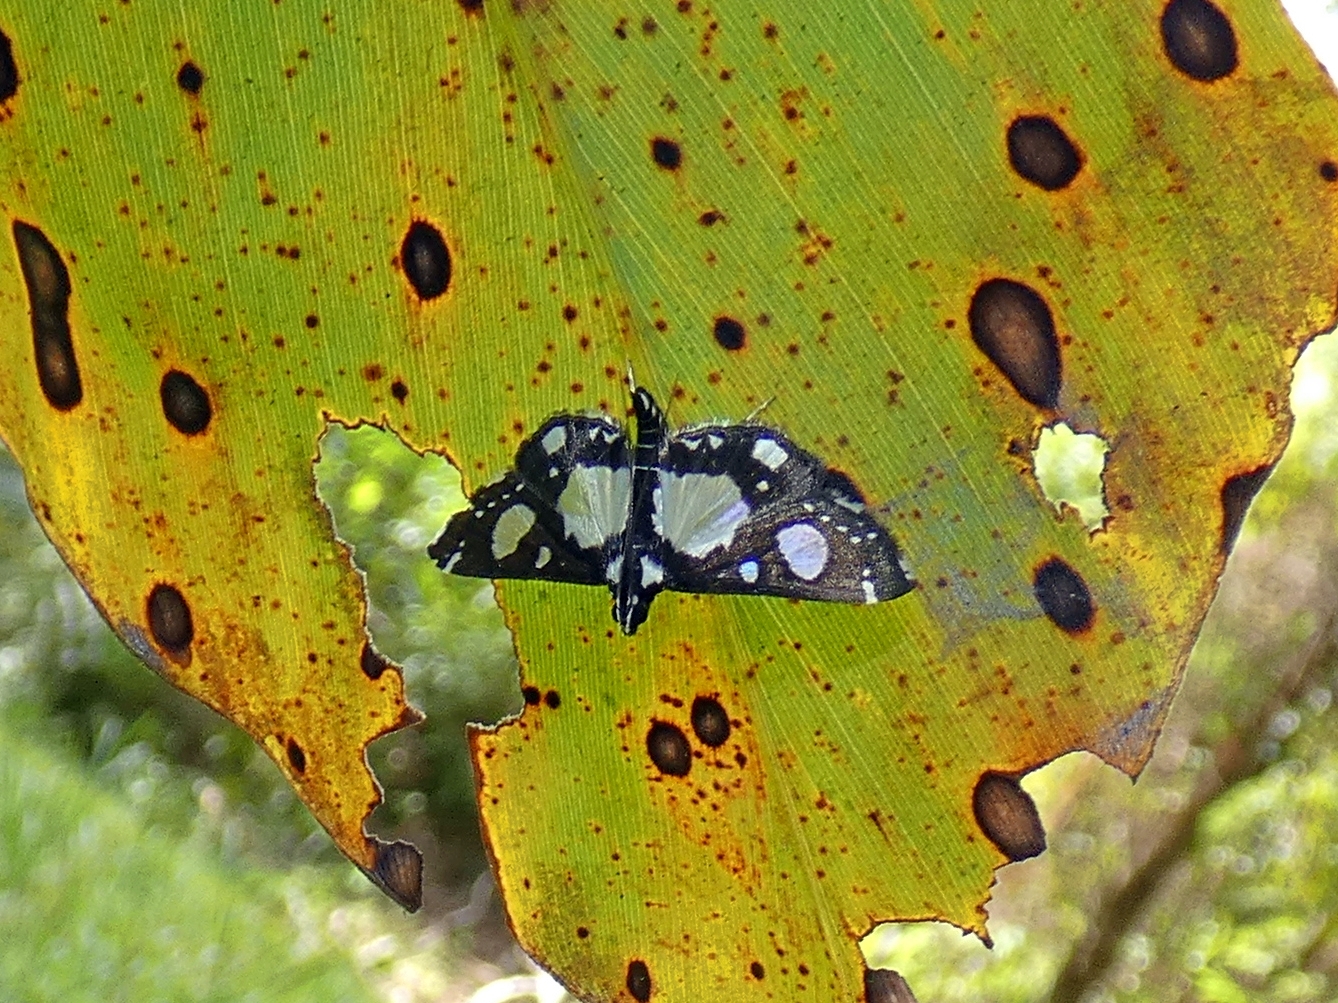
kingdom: Animalia
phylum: Arthropoda
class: Insecta
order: Lepidoptera
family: Crambidae
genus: Glyphodes
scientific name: Glyphodes conjunctalis
